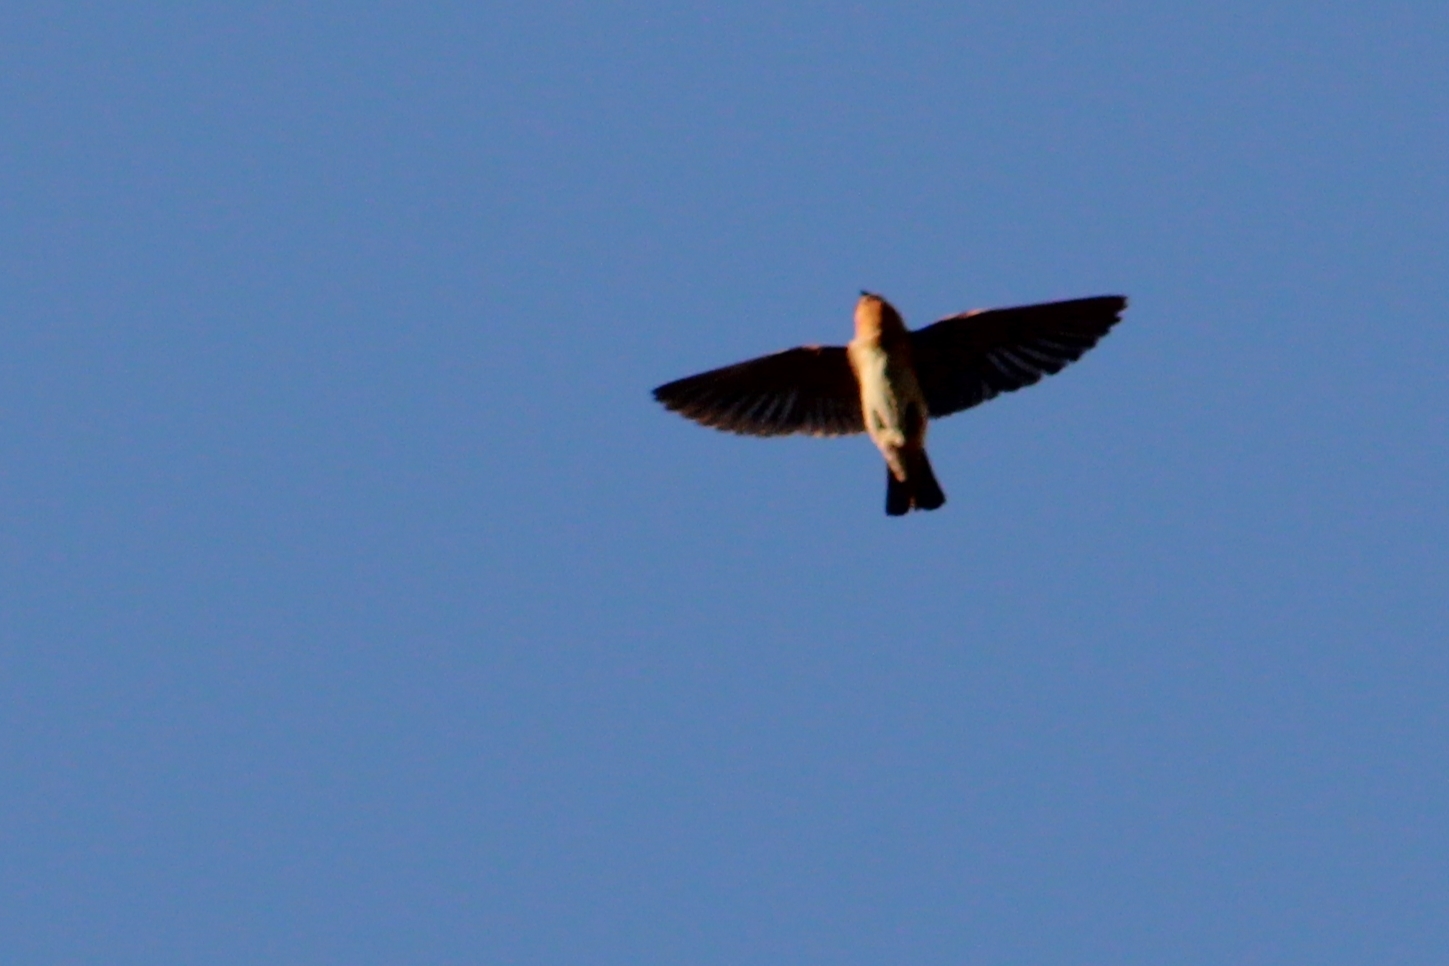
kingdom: Animalia
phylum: Chordata
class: Aves
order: Passeriformes
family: Hirundinidae
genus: Petrochelidon
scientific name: Petrochelidon fulva
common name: Cave swallow
